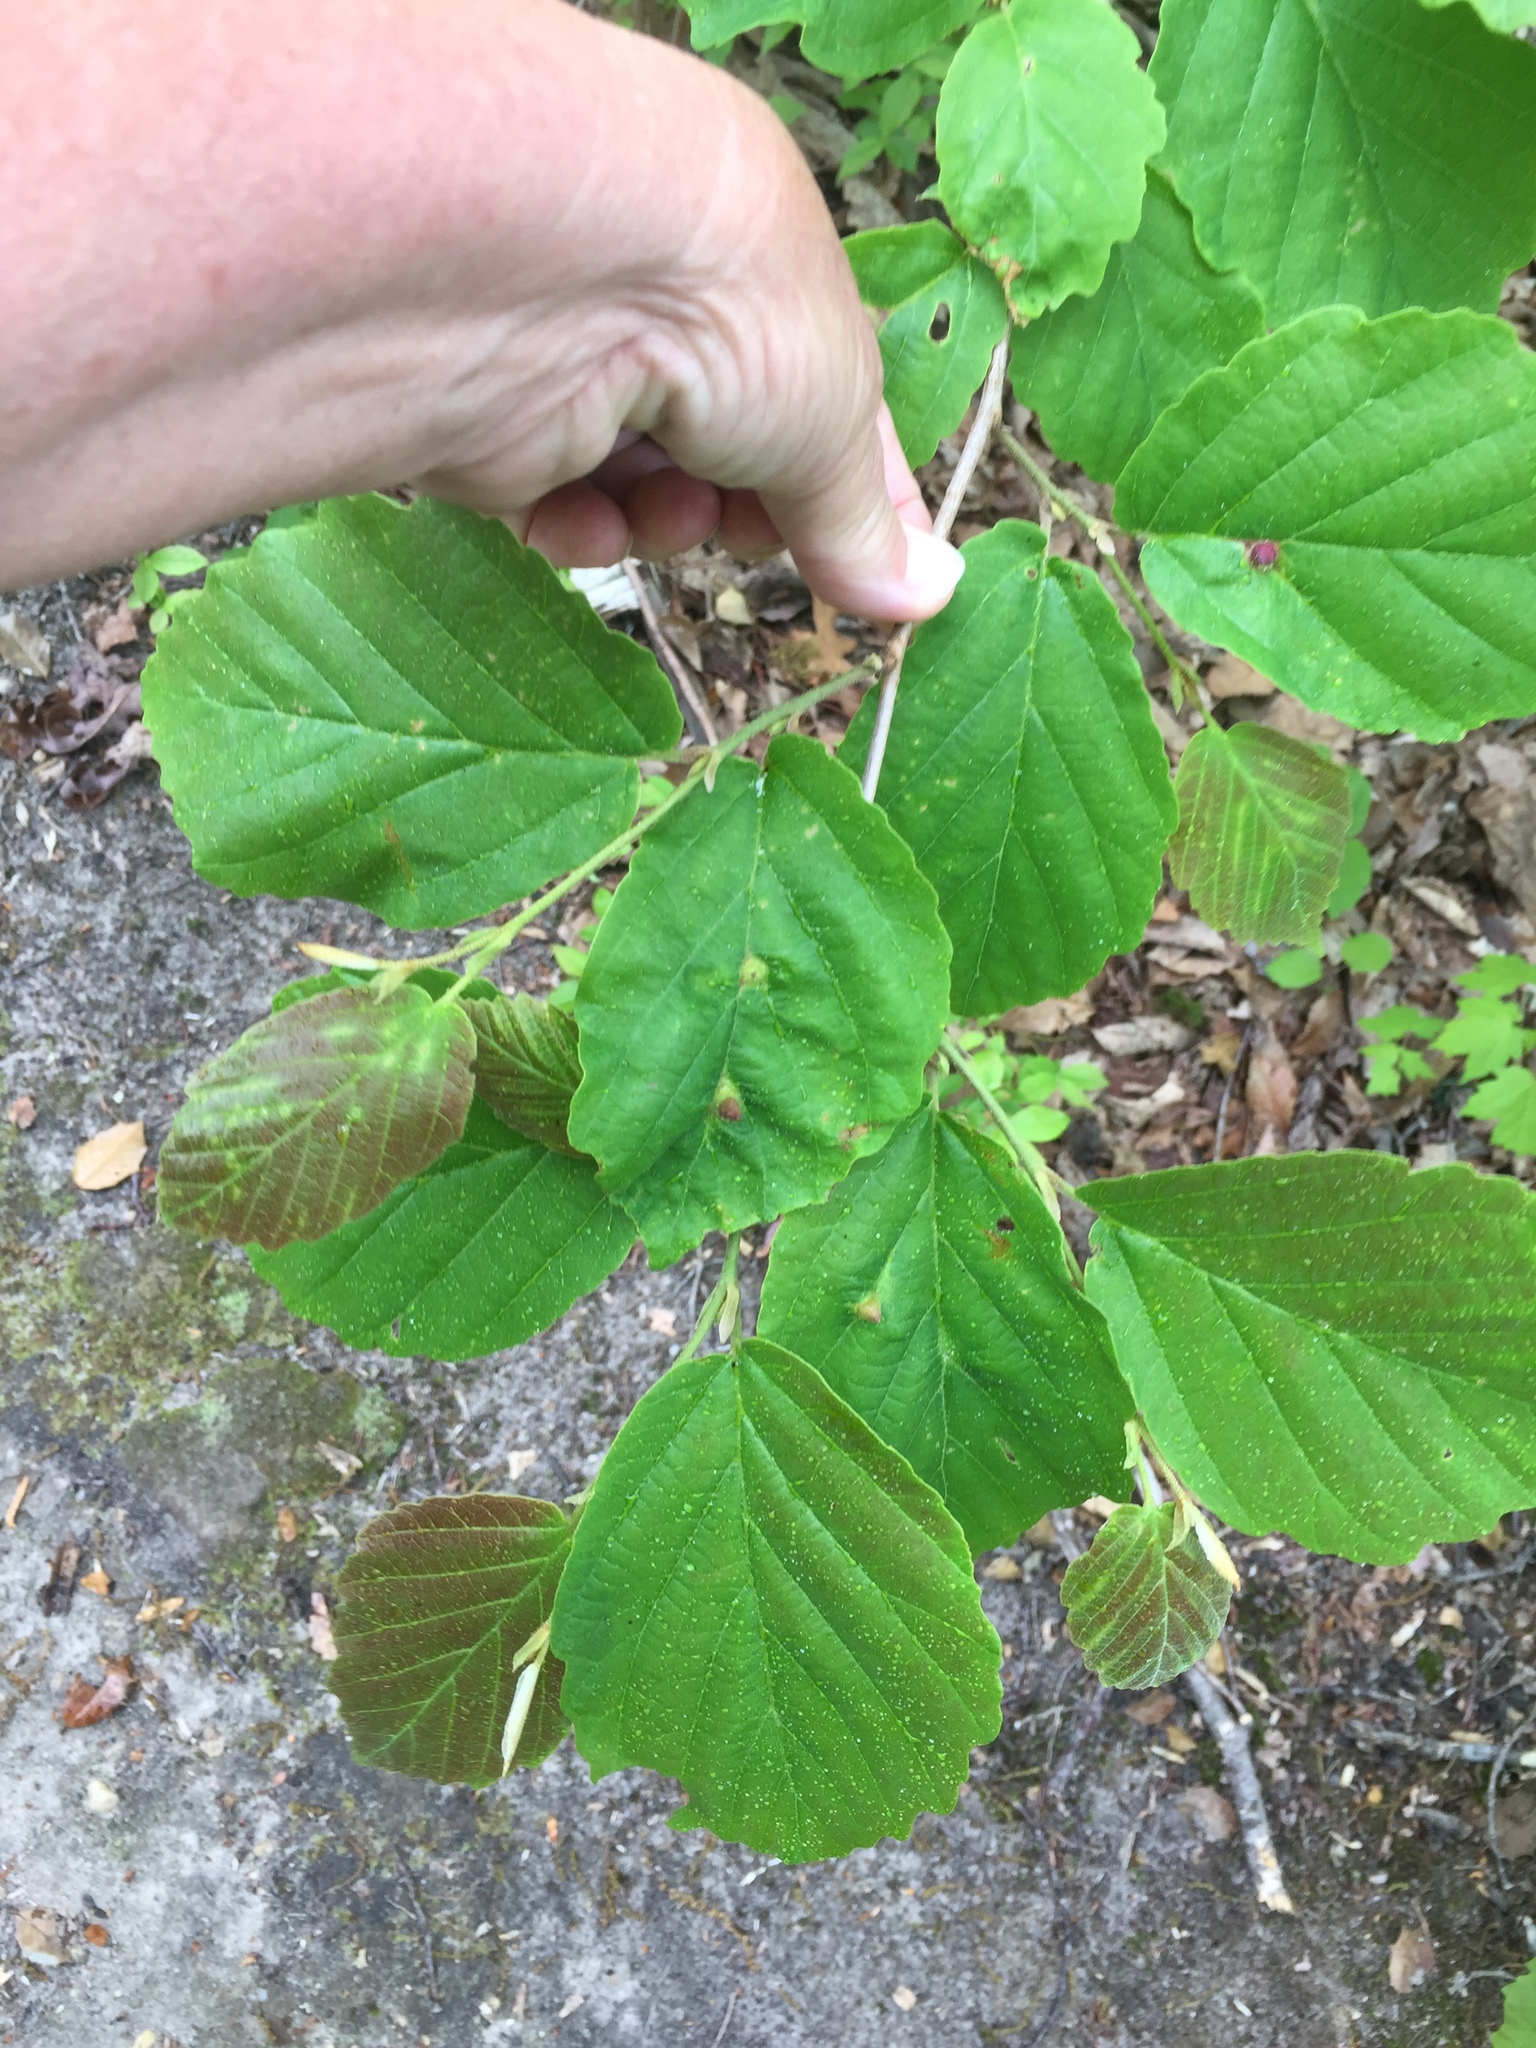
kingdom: Plantae
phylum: Tracheophyta
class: Magnoliopsida
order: Saxifragales
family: Hamamelidaceae
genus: Hamamelis
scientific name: Hamamelis virginiana
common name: Witch-hazel
